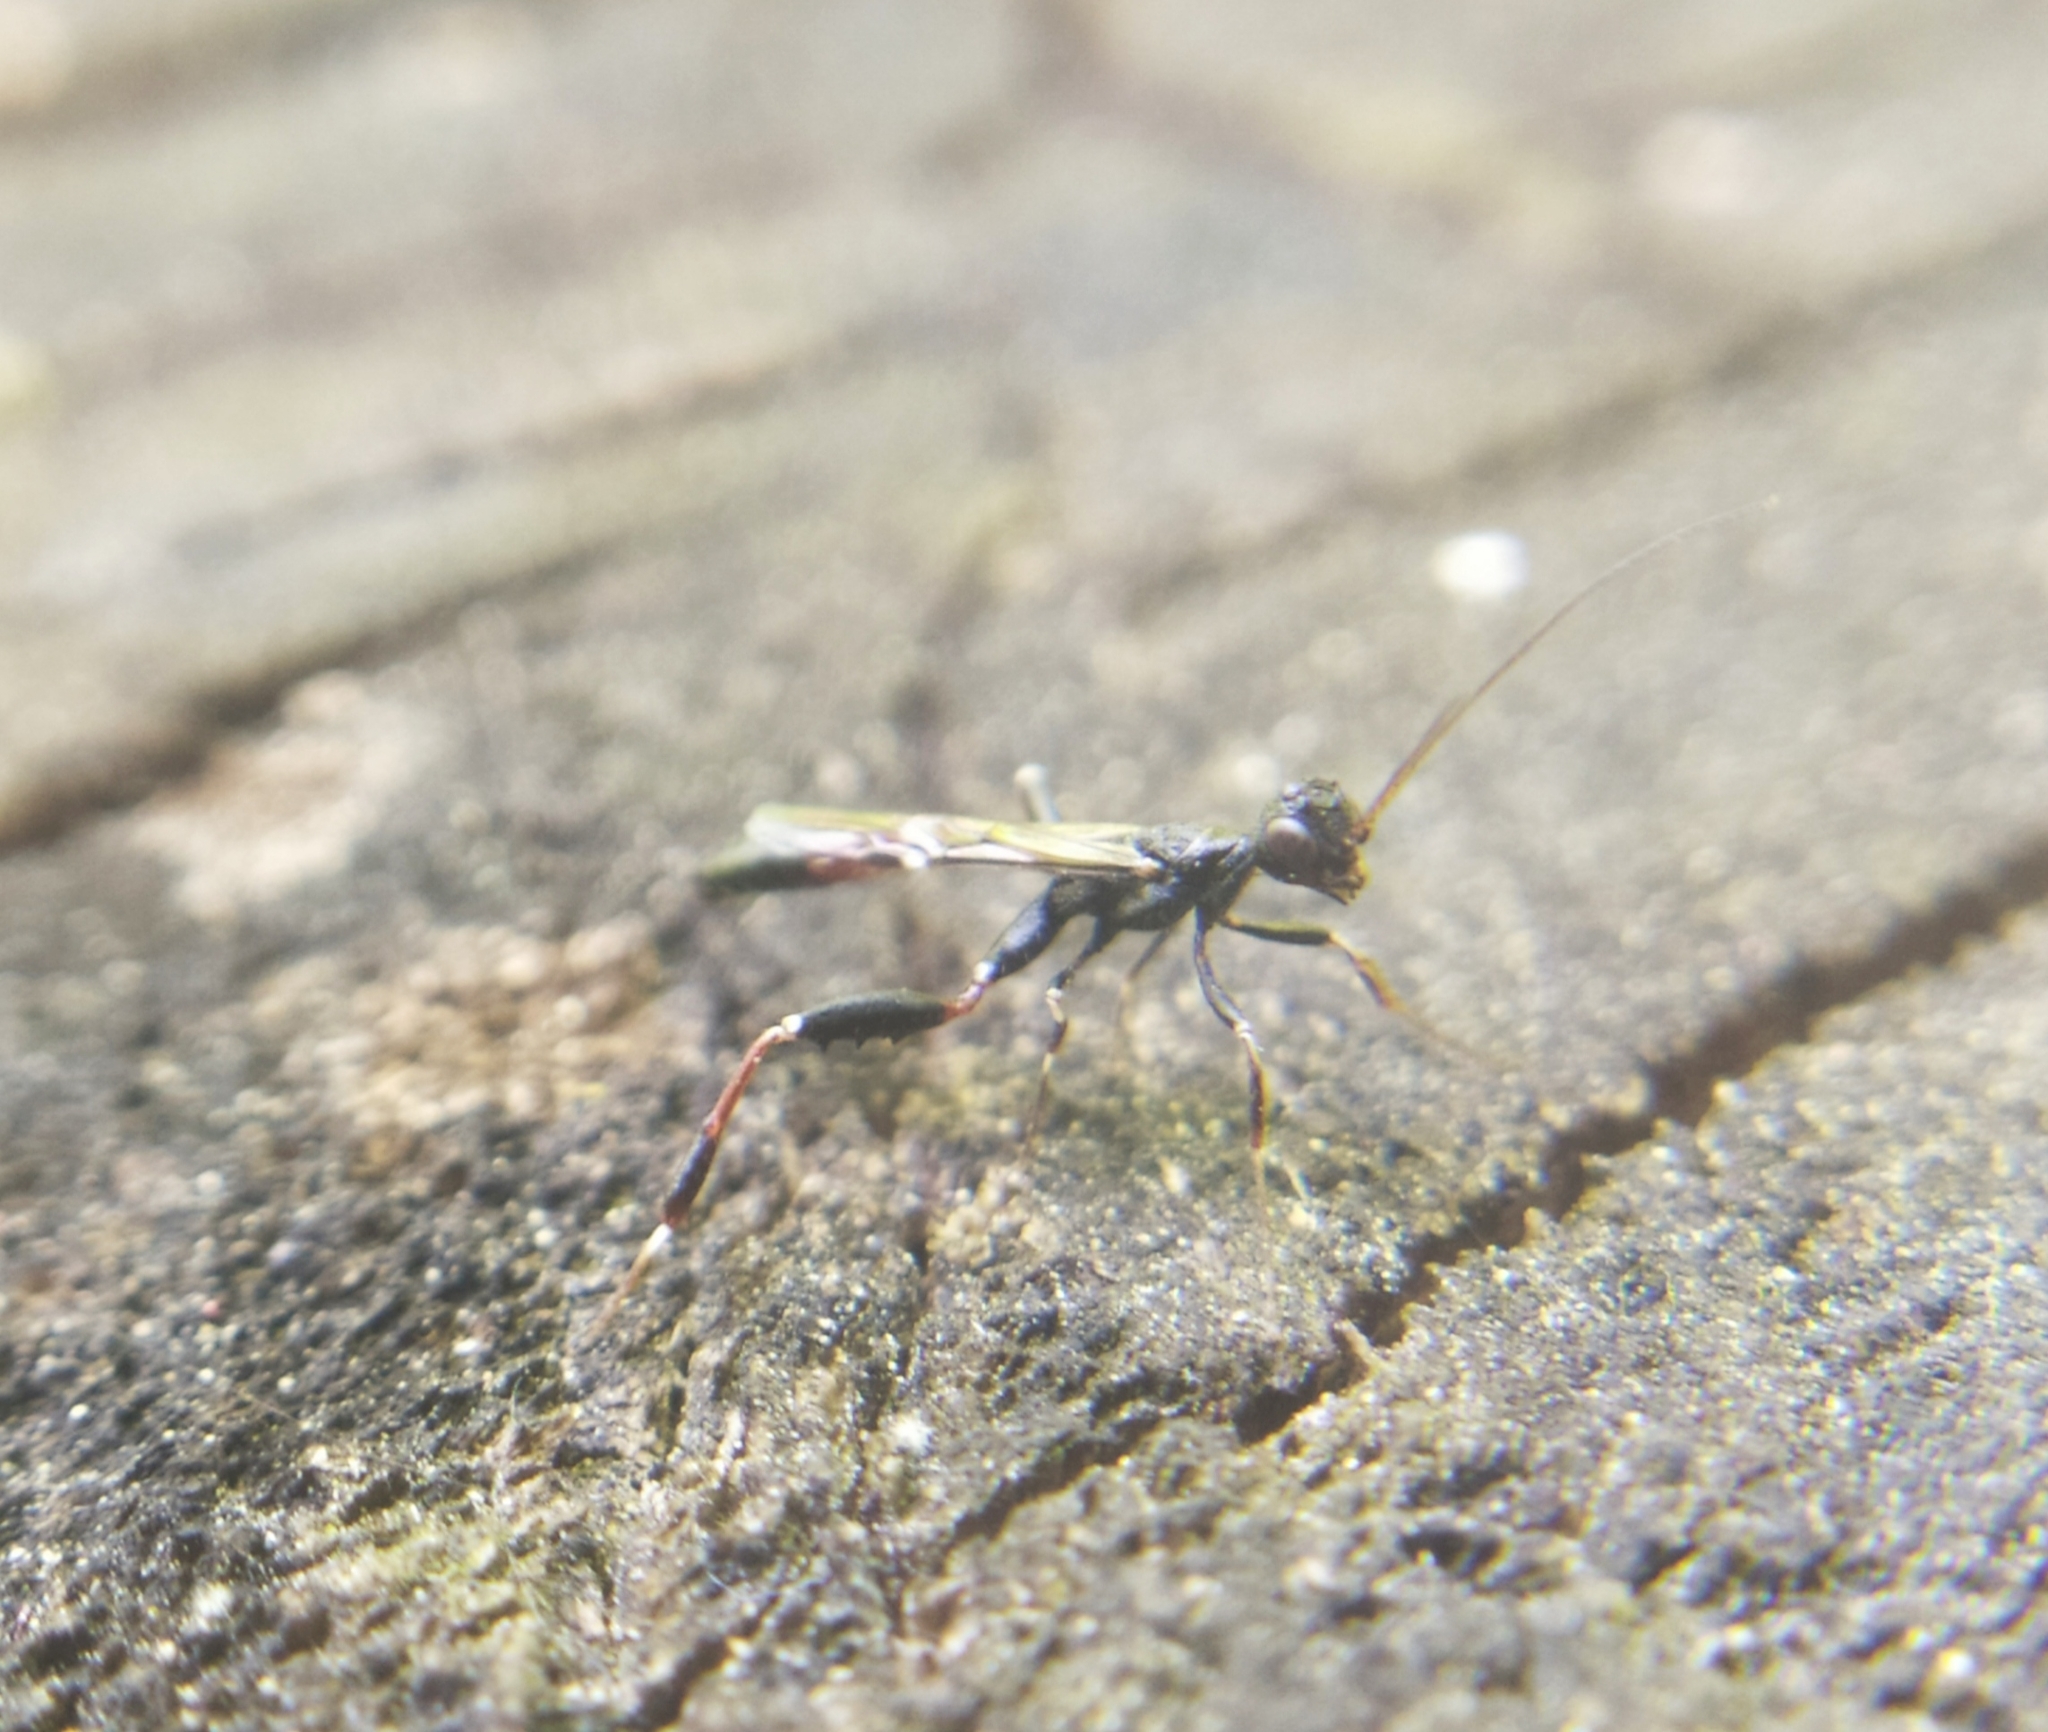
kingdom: Animalia
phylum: Arthropoda
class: Insecta
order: Hymenoptera
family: Stephanidae
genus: Stephanus
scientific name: Stephanus serrator
